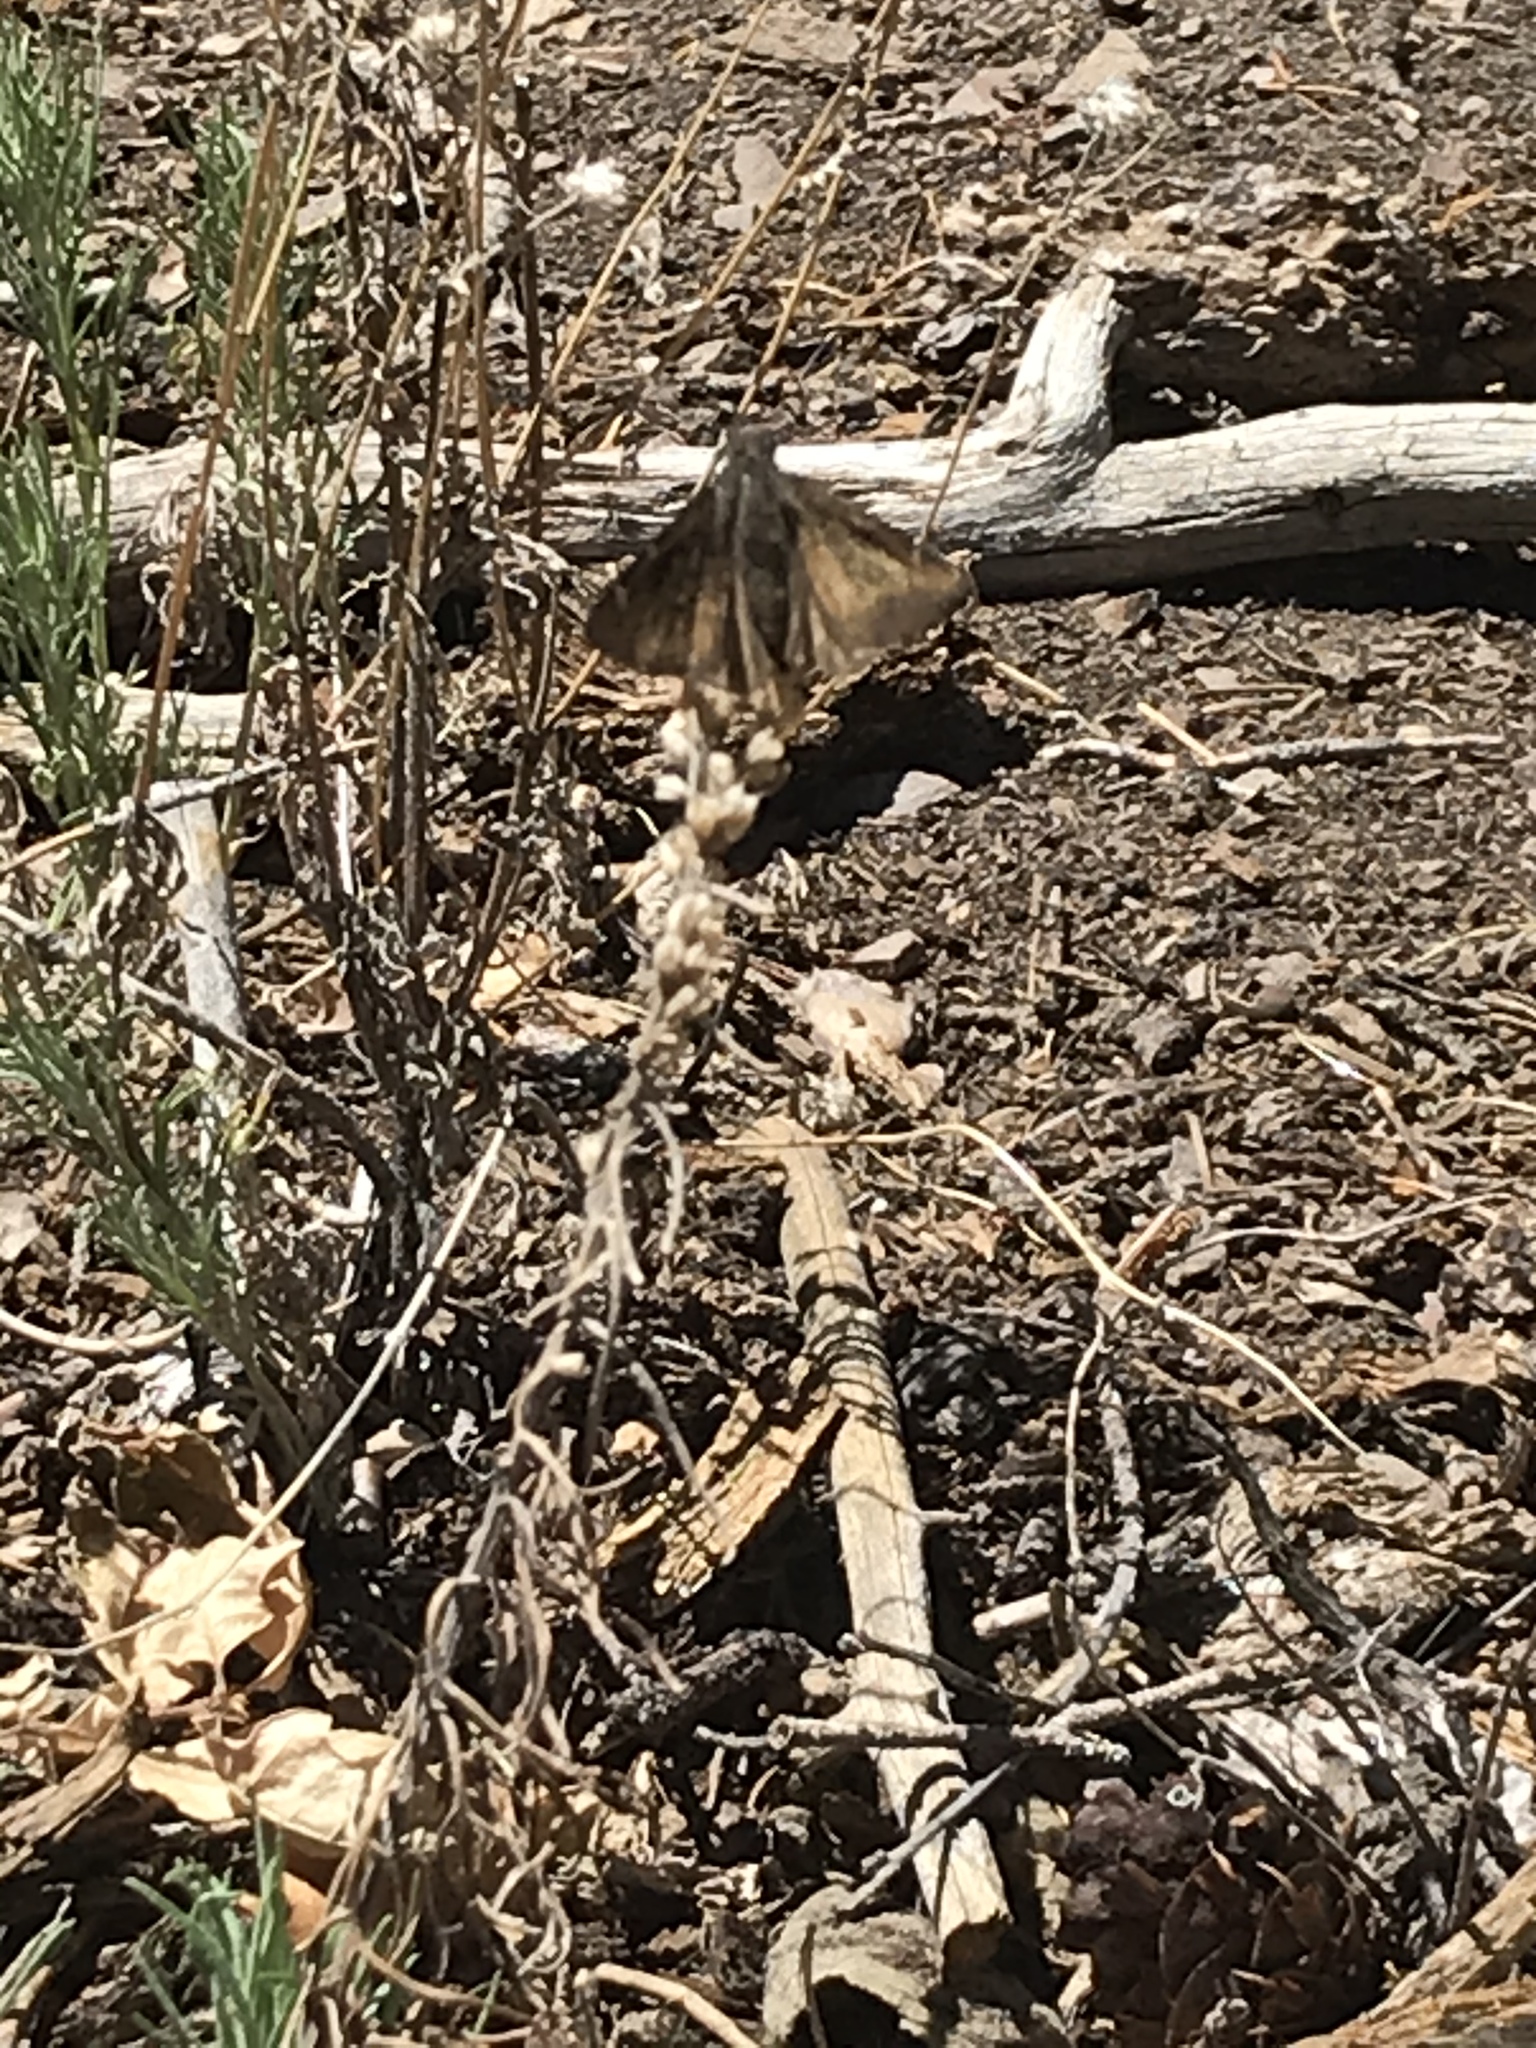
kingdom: Animalia
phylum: Arthropoda
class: Insecta
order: Lepidoptera
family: Hesperiidae
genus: Thorybes
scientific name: Thorybes pylades
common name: Northern cloudywing
